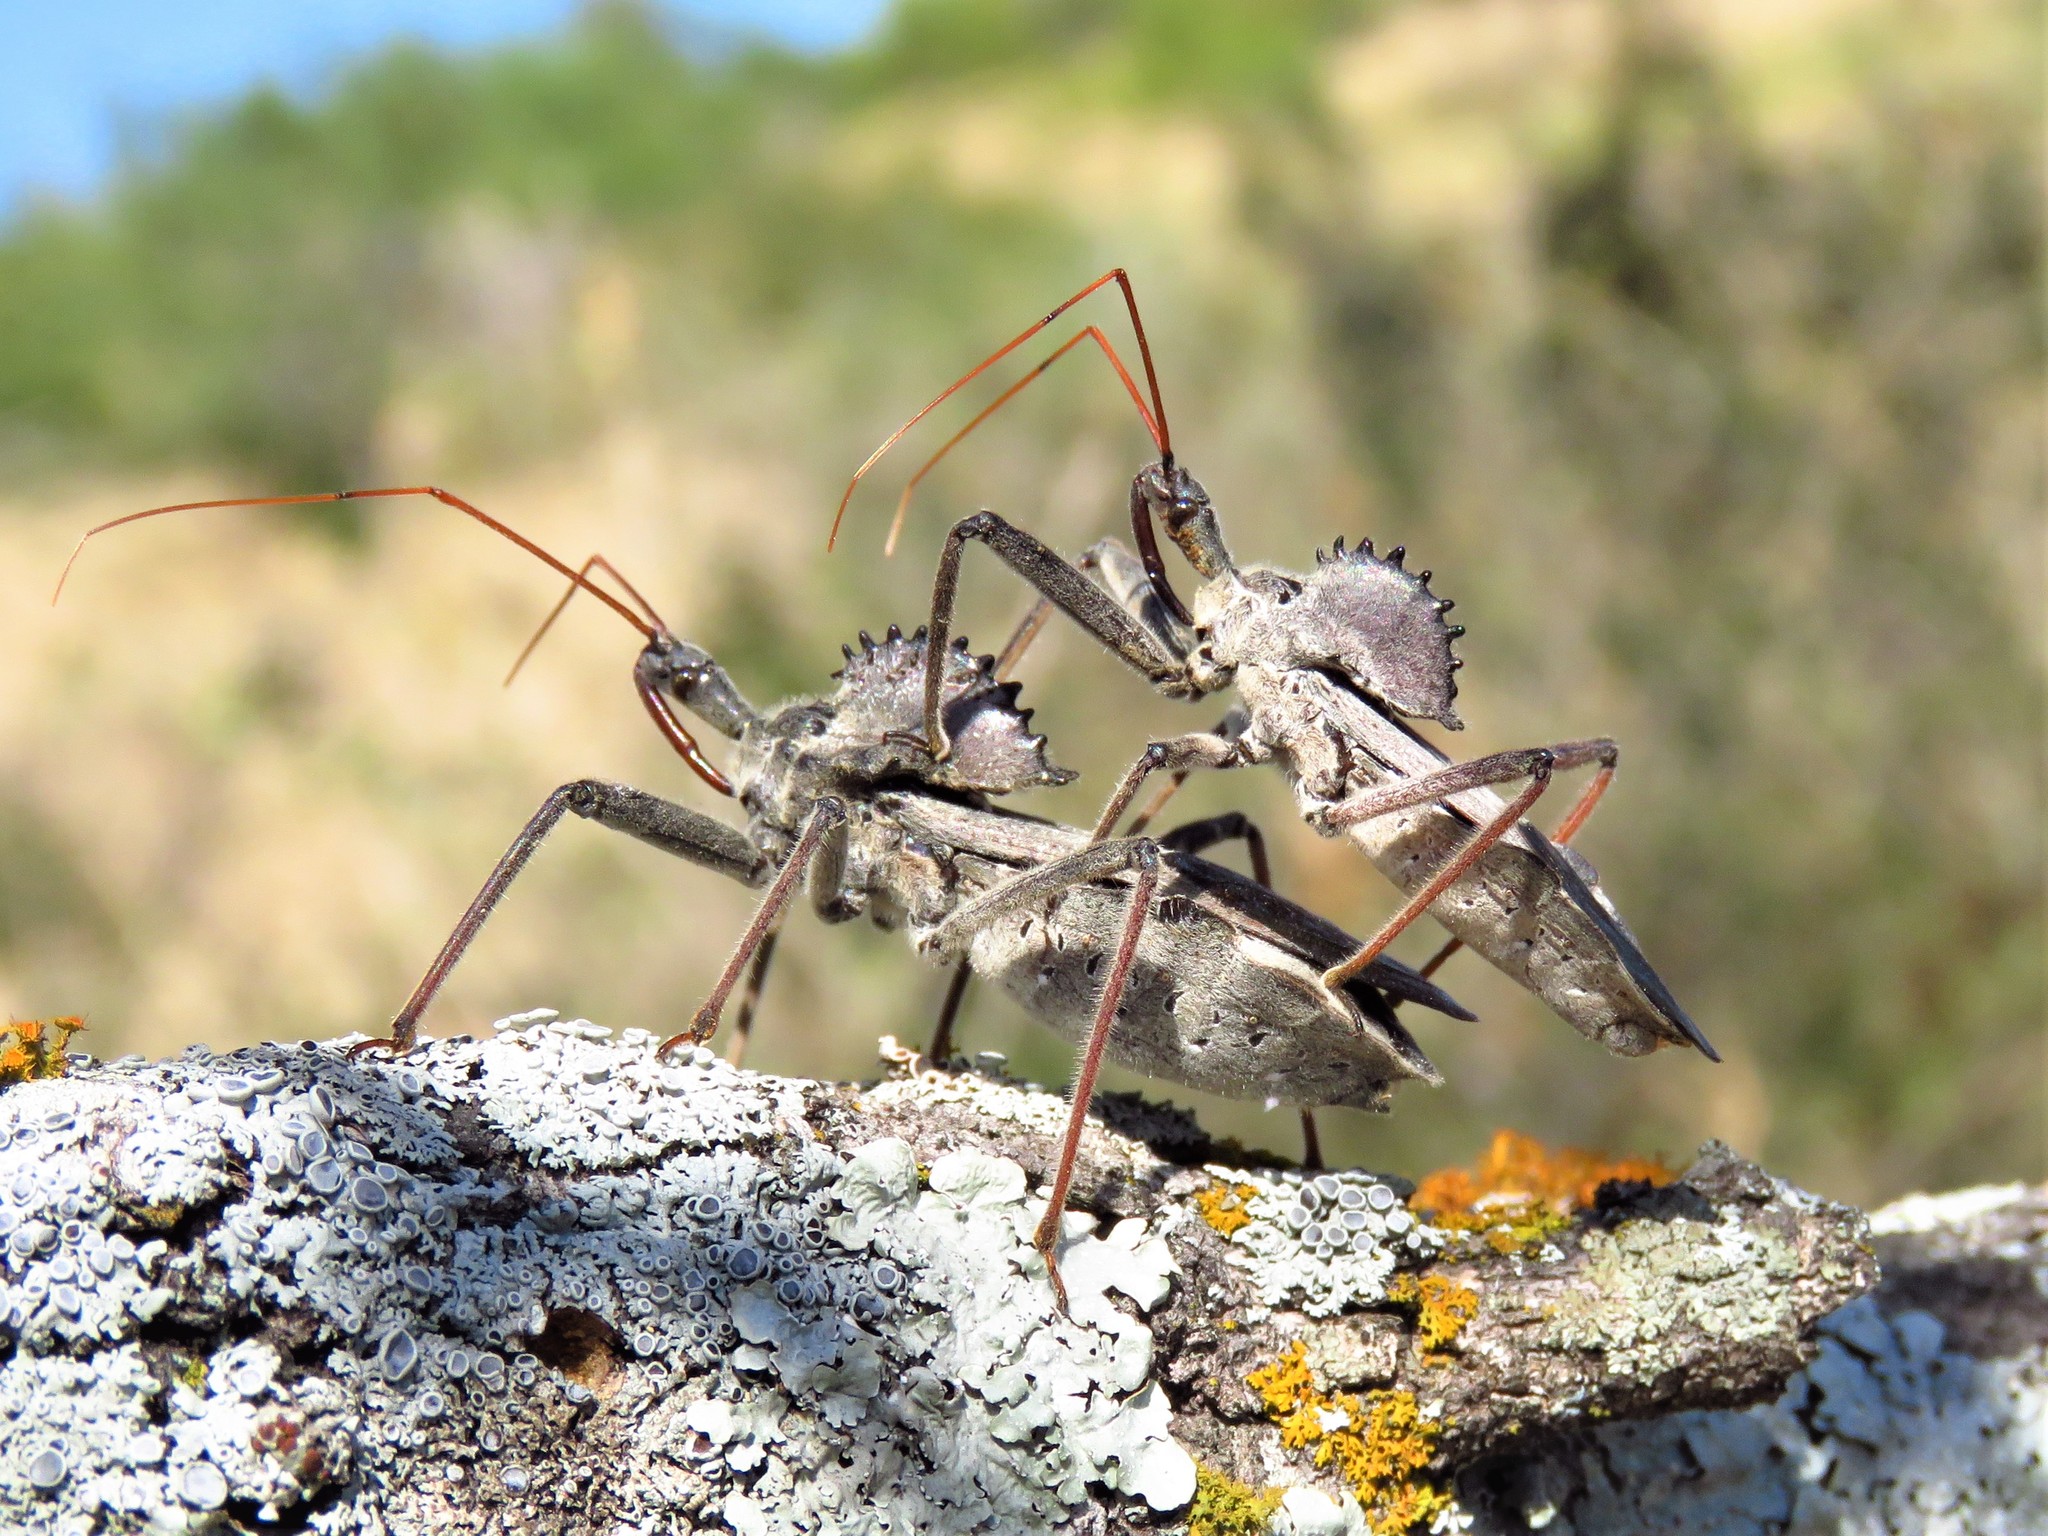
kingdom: Animalia
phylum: Arthropoda
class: Insecta
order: Hemiptera
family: Reduviidae
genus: Arilus
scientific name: Arilus cristatus
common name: North american wheel bug
